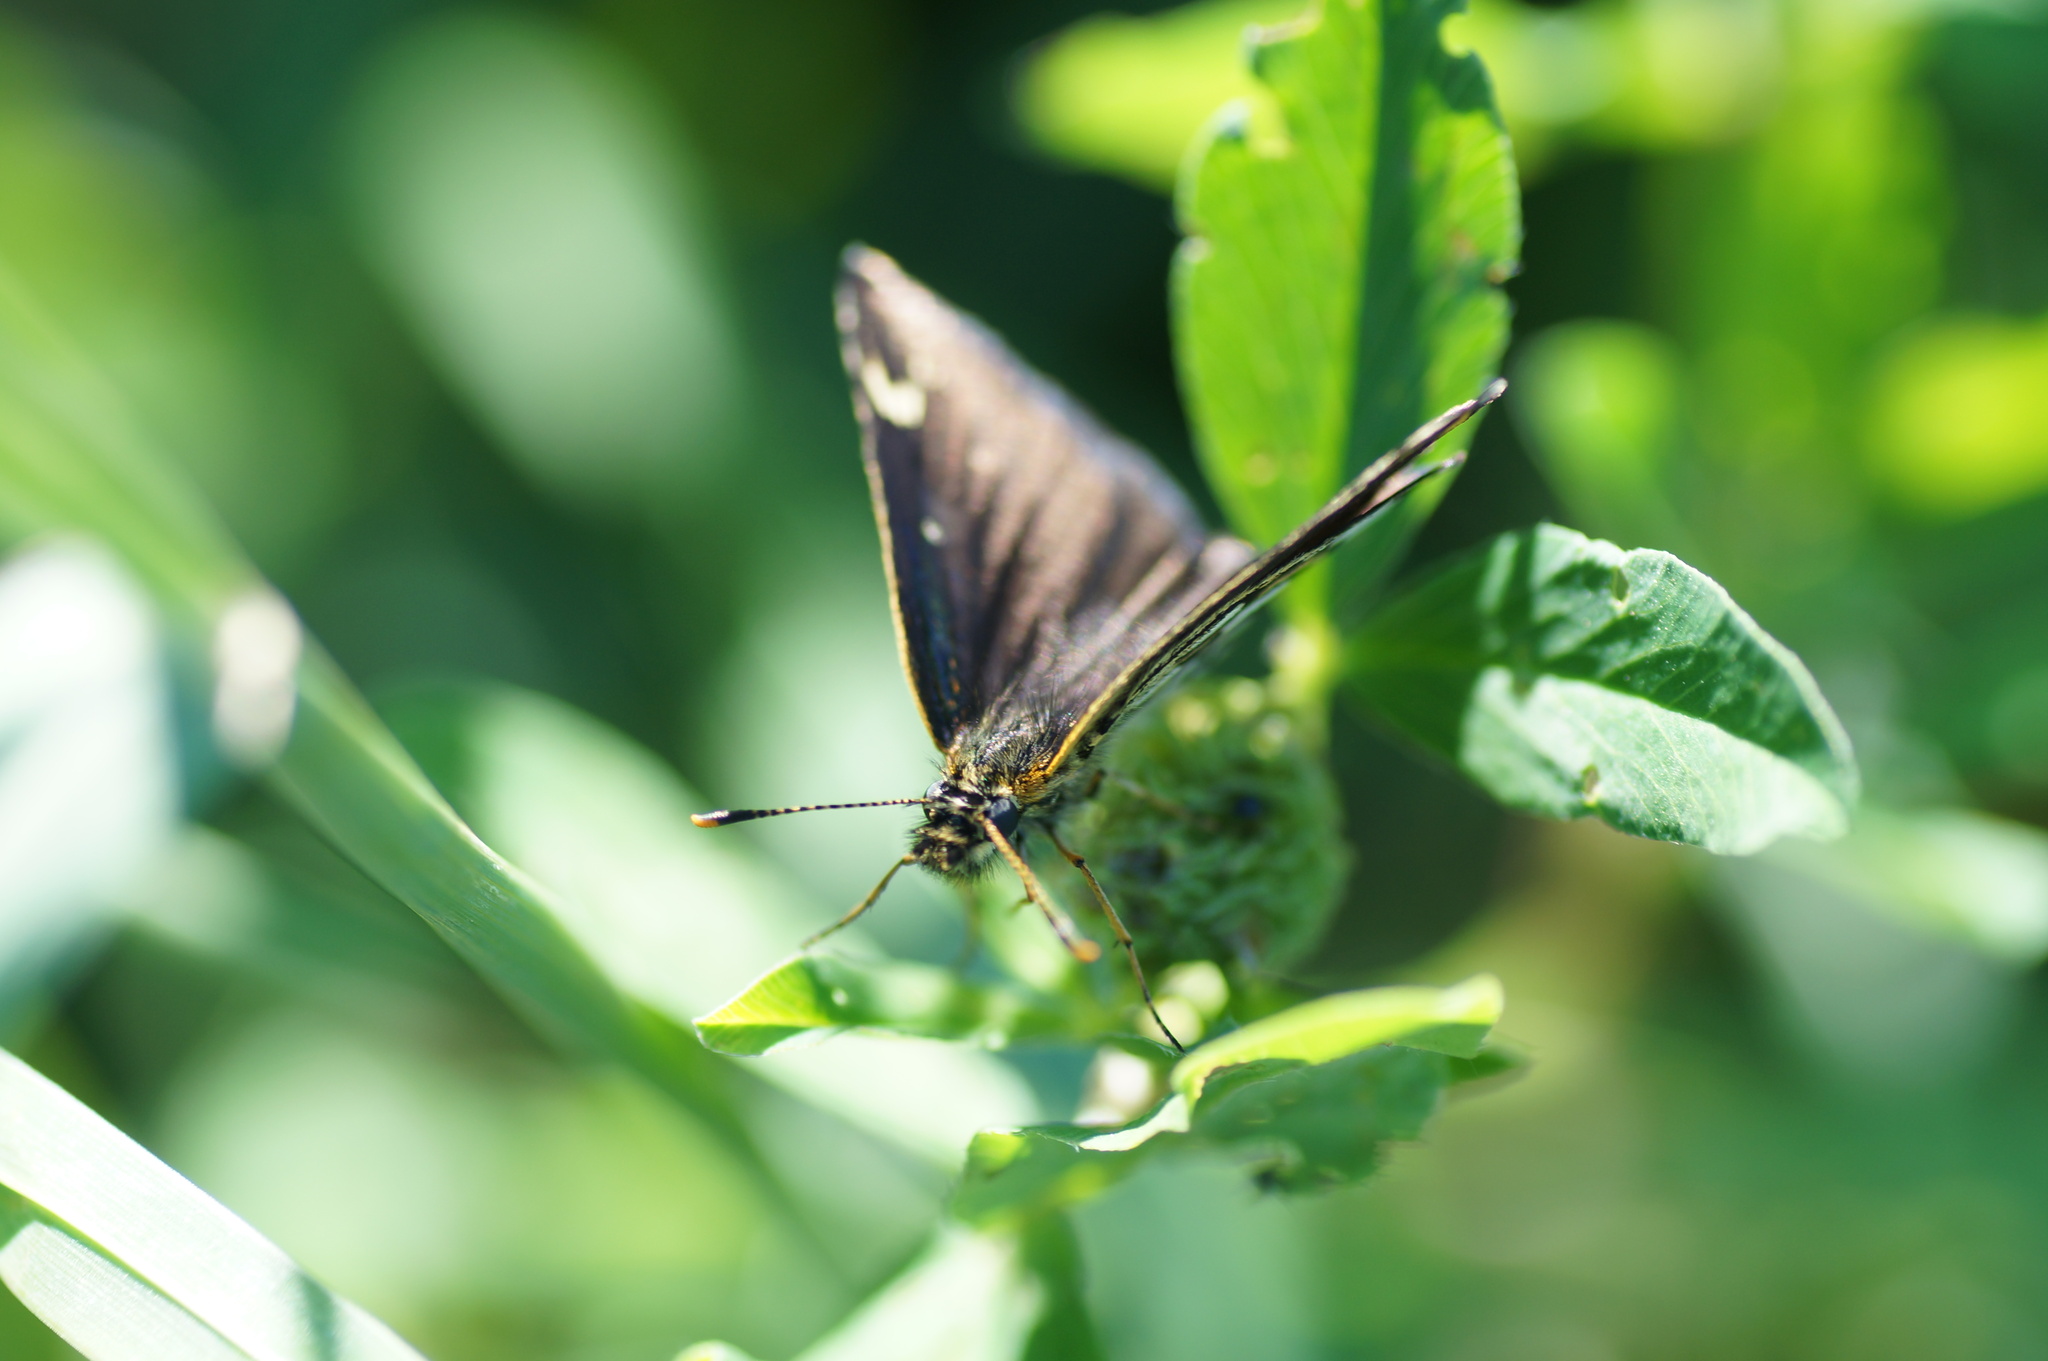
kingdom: Animalia
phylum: Arthropoda
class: Insecta
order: Lepidoptera
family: Hesperiidae
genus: Heteropterus
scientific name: Heteropterus morpheus
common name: Large chequered skipper
